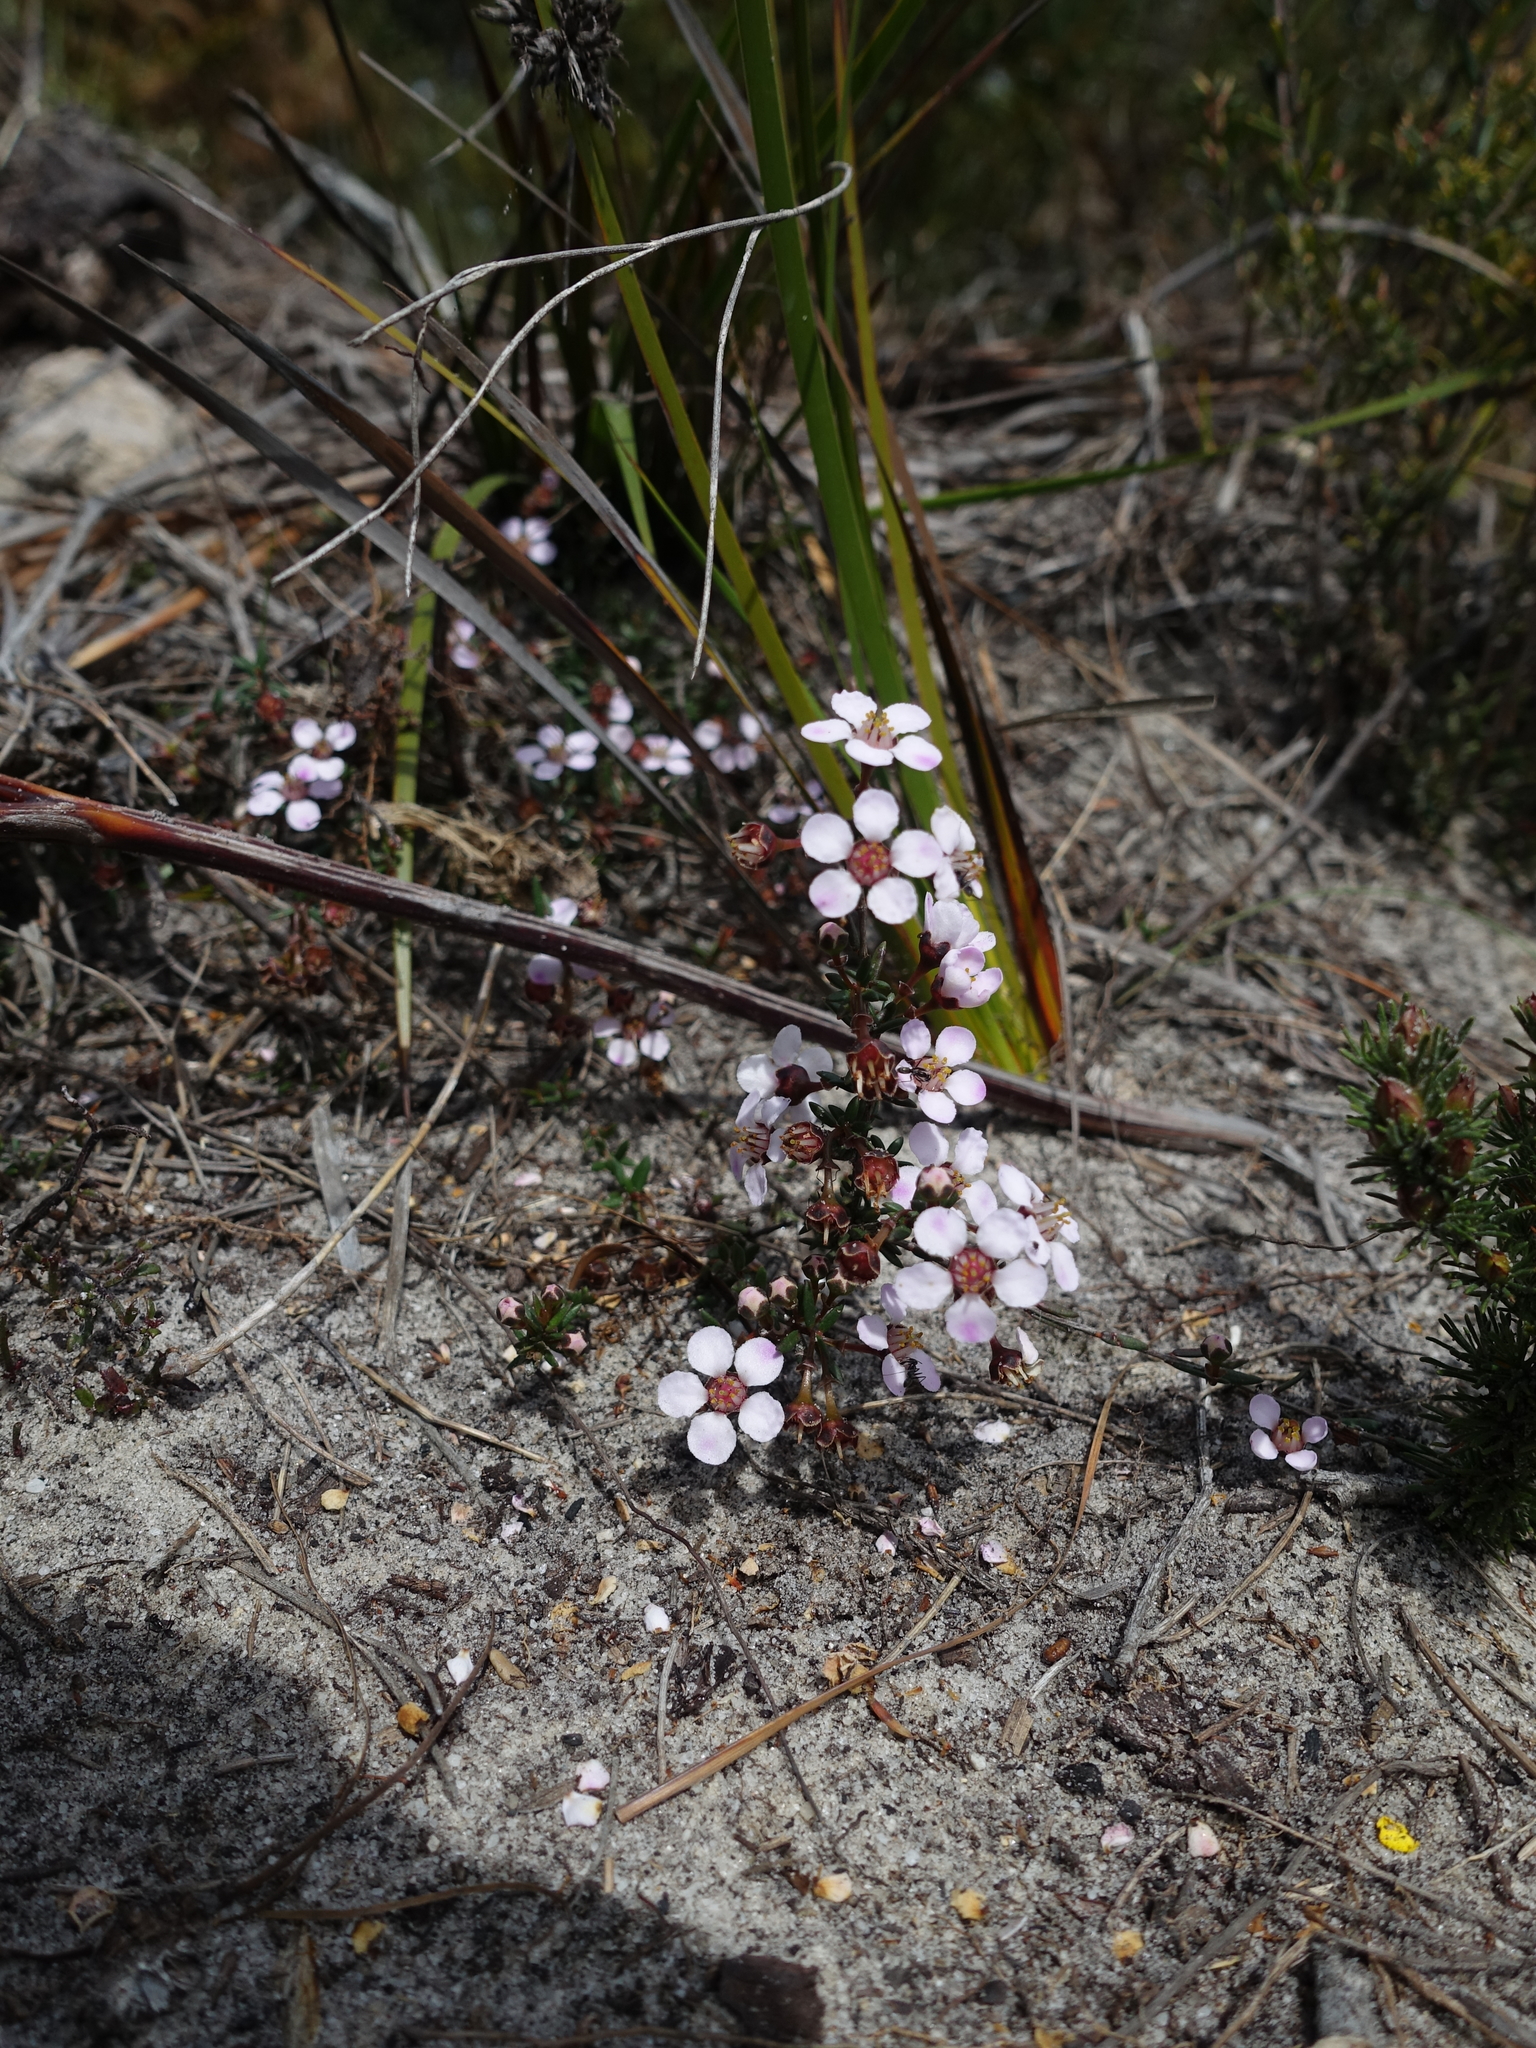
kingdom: Plantae
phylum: Tracheophyta
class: Magnoliopsida
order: Myrtales
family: Myrtaceae
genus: Euryomyrtus
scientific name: Euryomyrtus ramosissima
